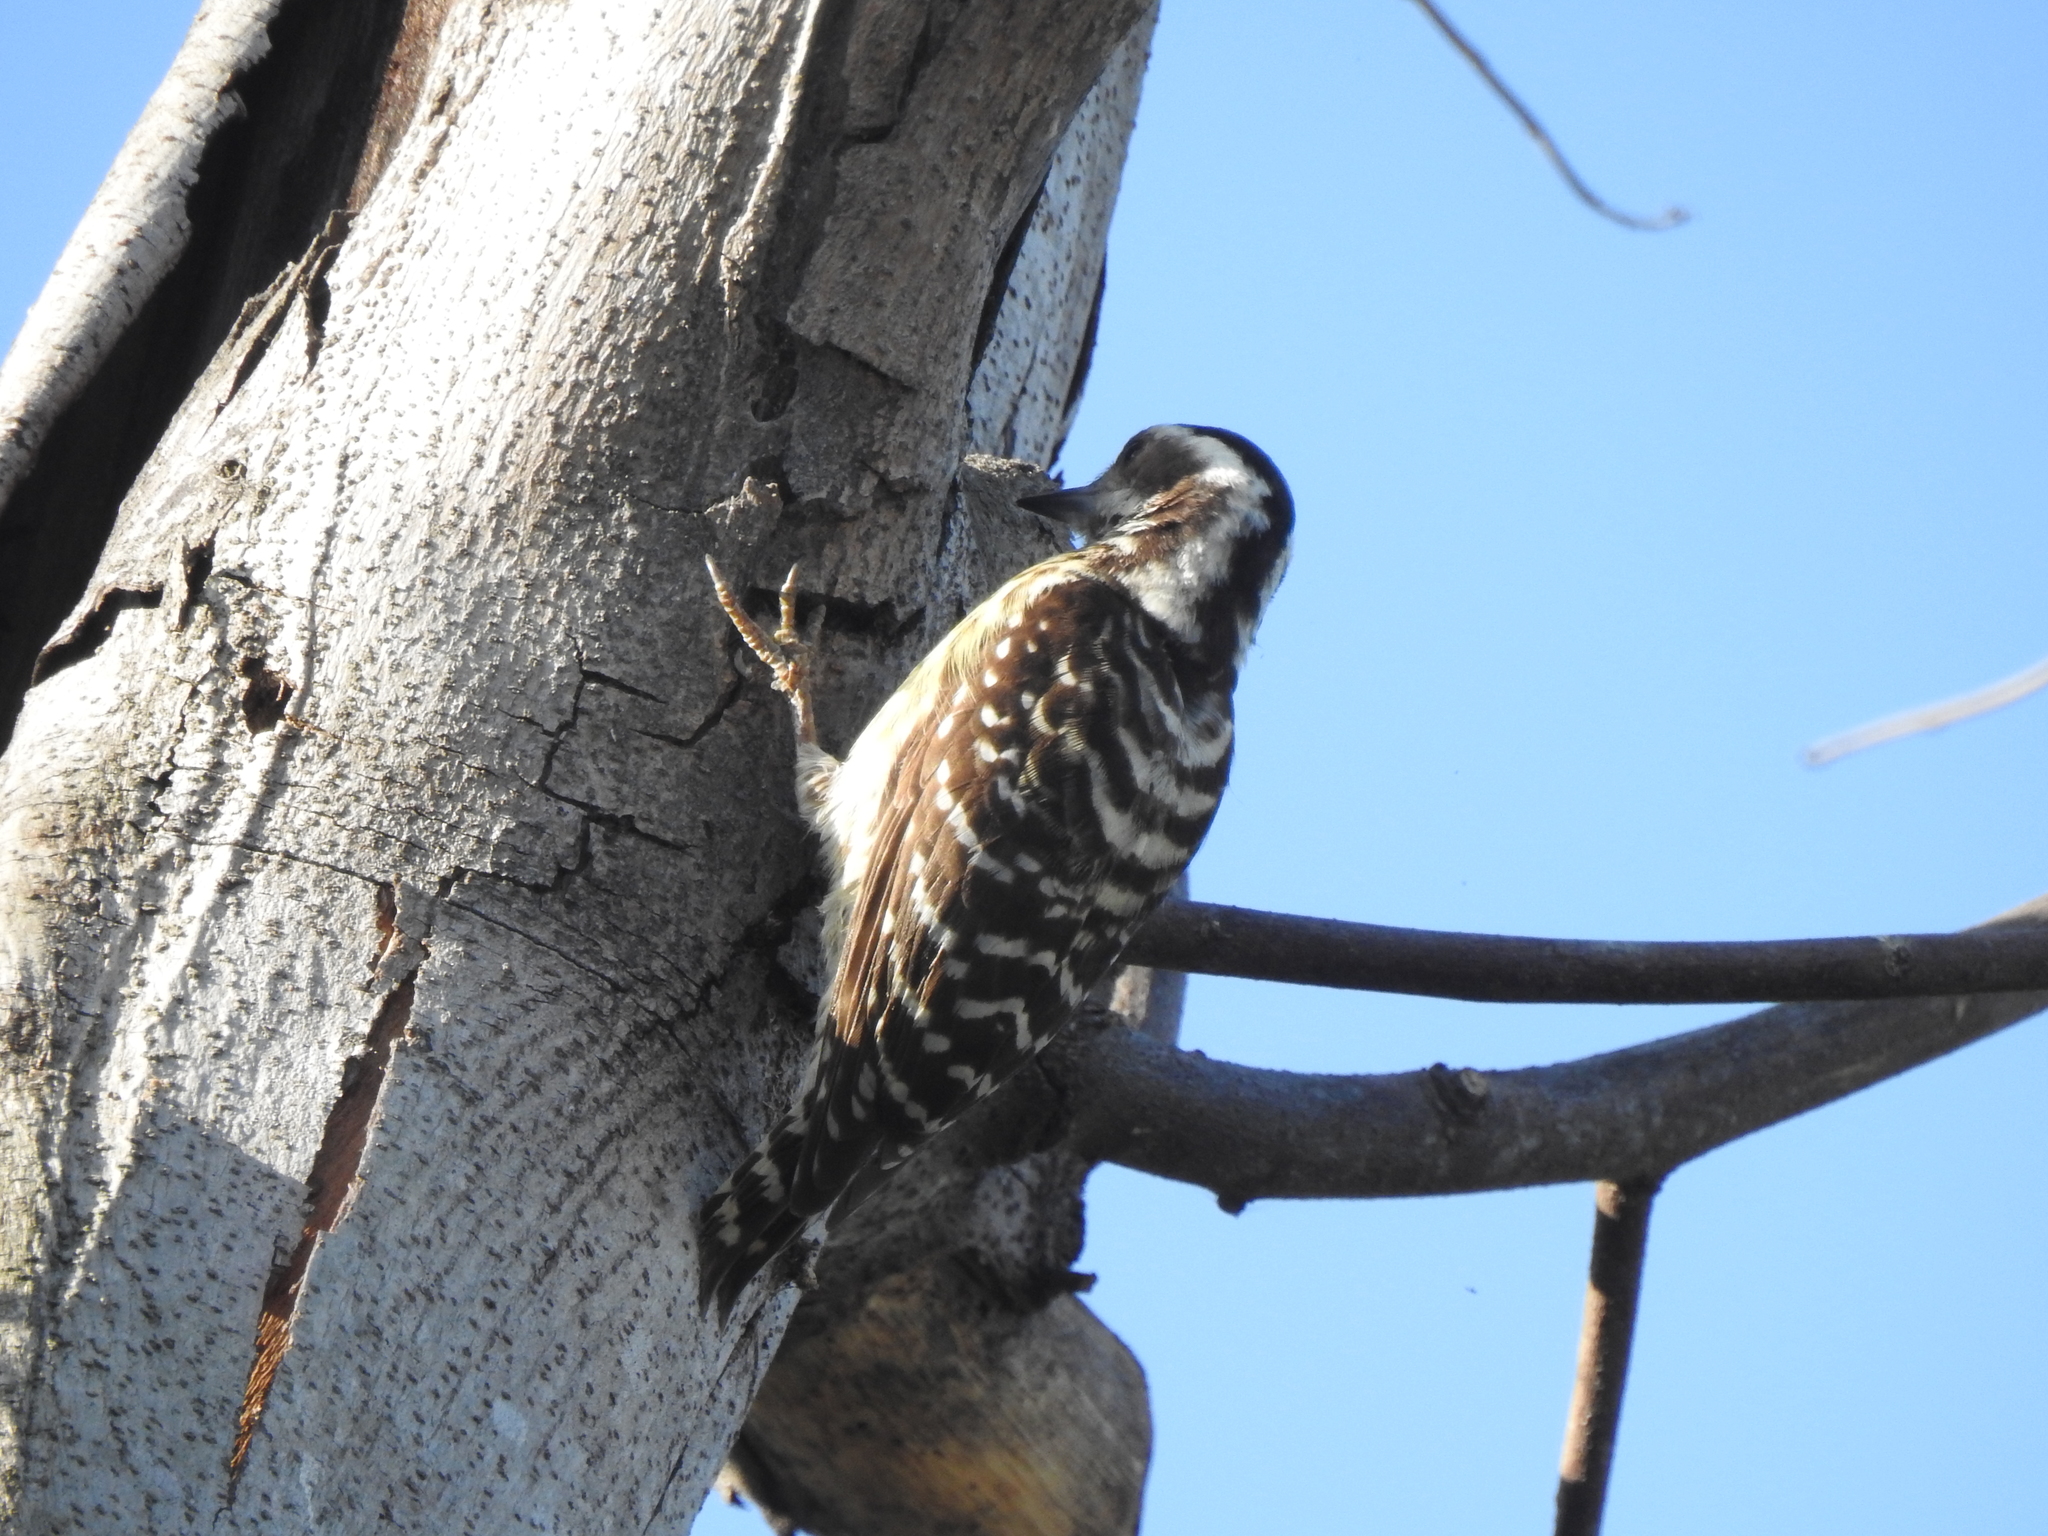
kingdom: Animalia
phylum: Chordata
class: Aves
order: Piciformes
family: Picidae
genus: Yungipicus
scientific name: Yungipicus maculatus
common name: Philippine pygmy woodpecker
